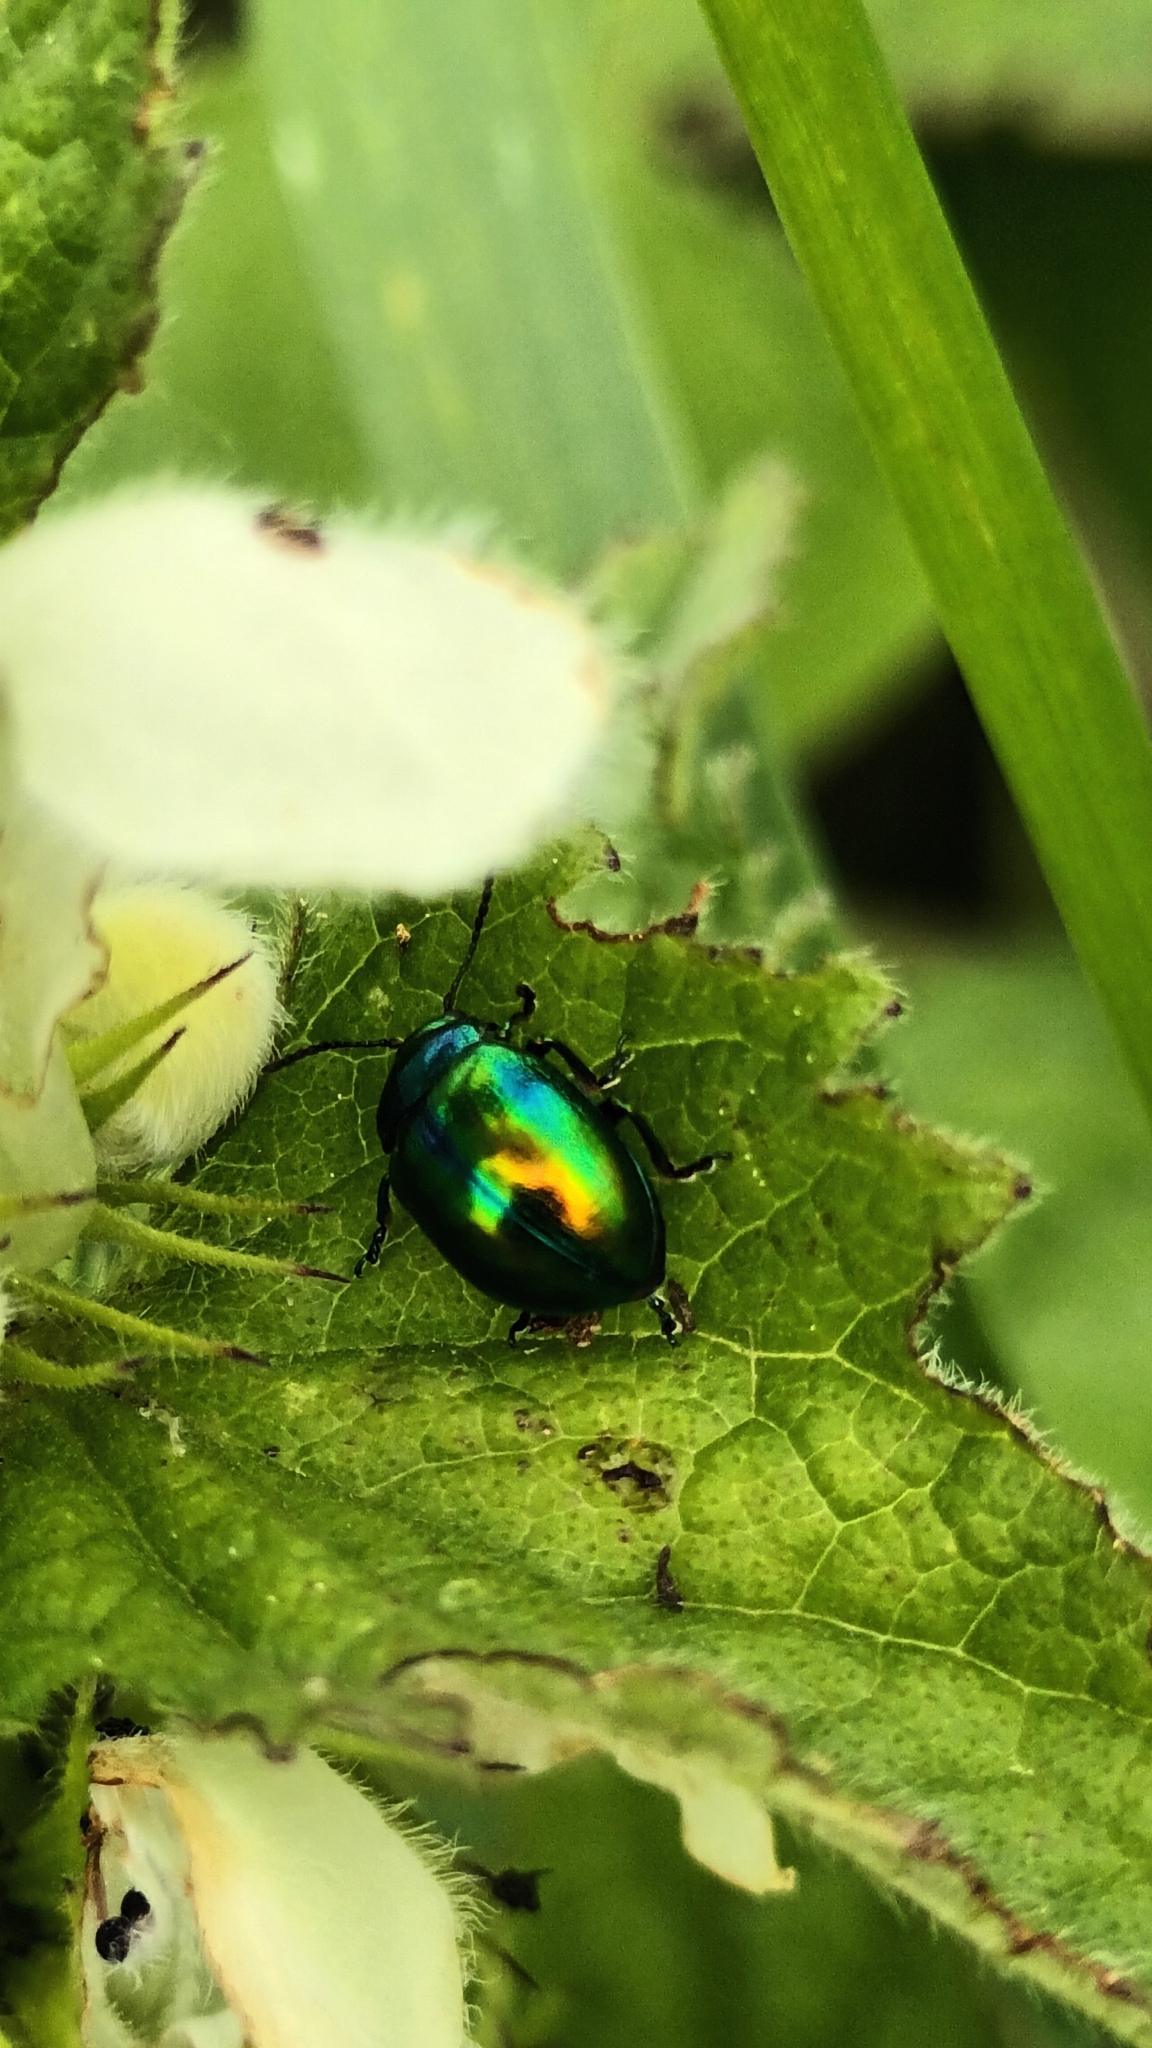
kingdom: Animalia
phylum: Arthropoda
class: Insecta
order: Coleoptera
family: Chrysomelidae
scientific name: Chrysomelidae
